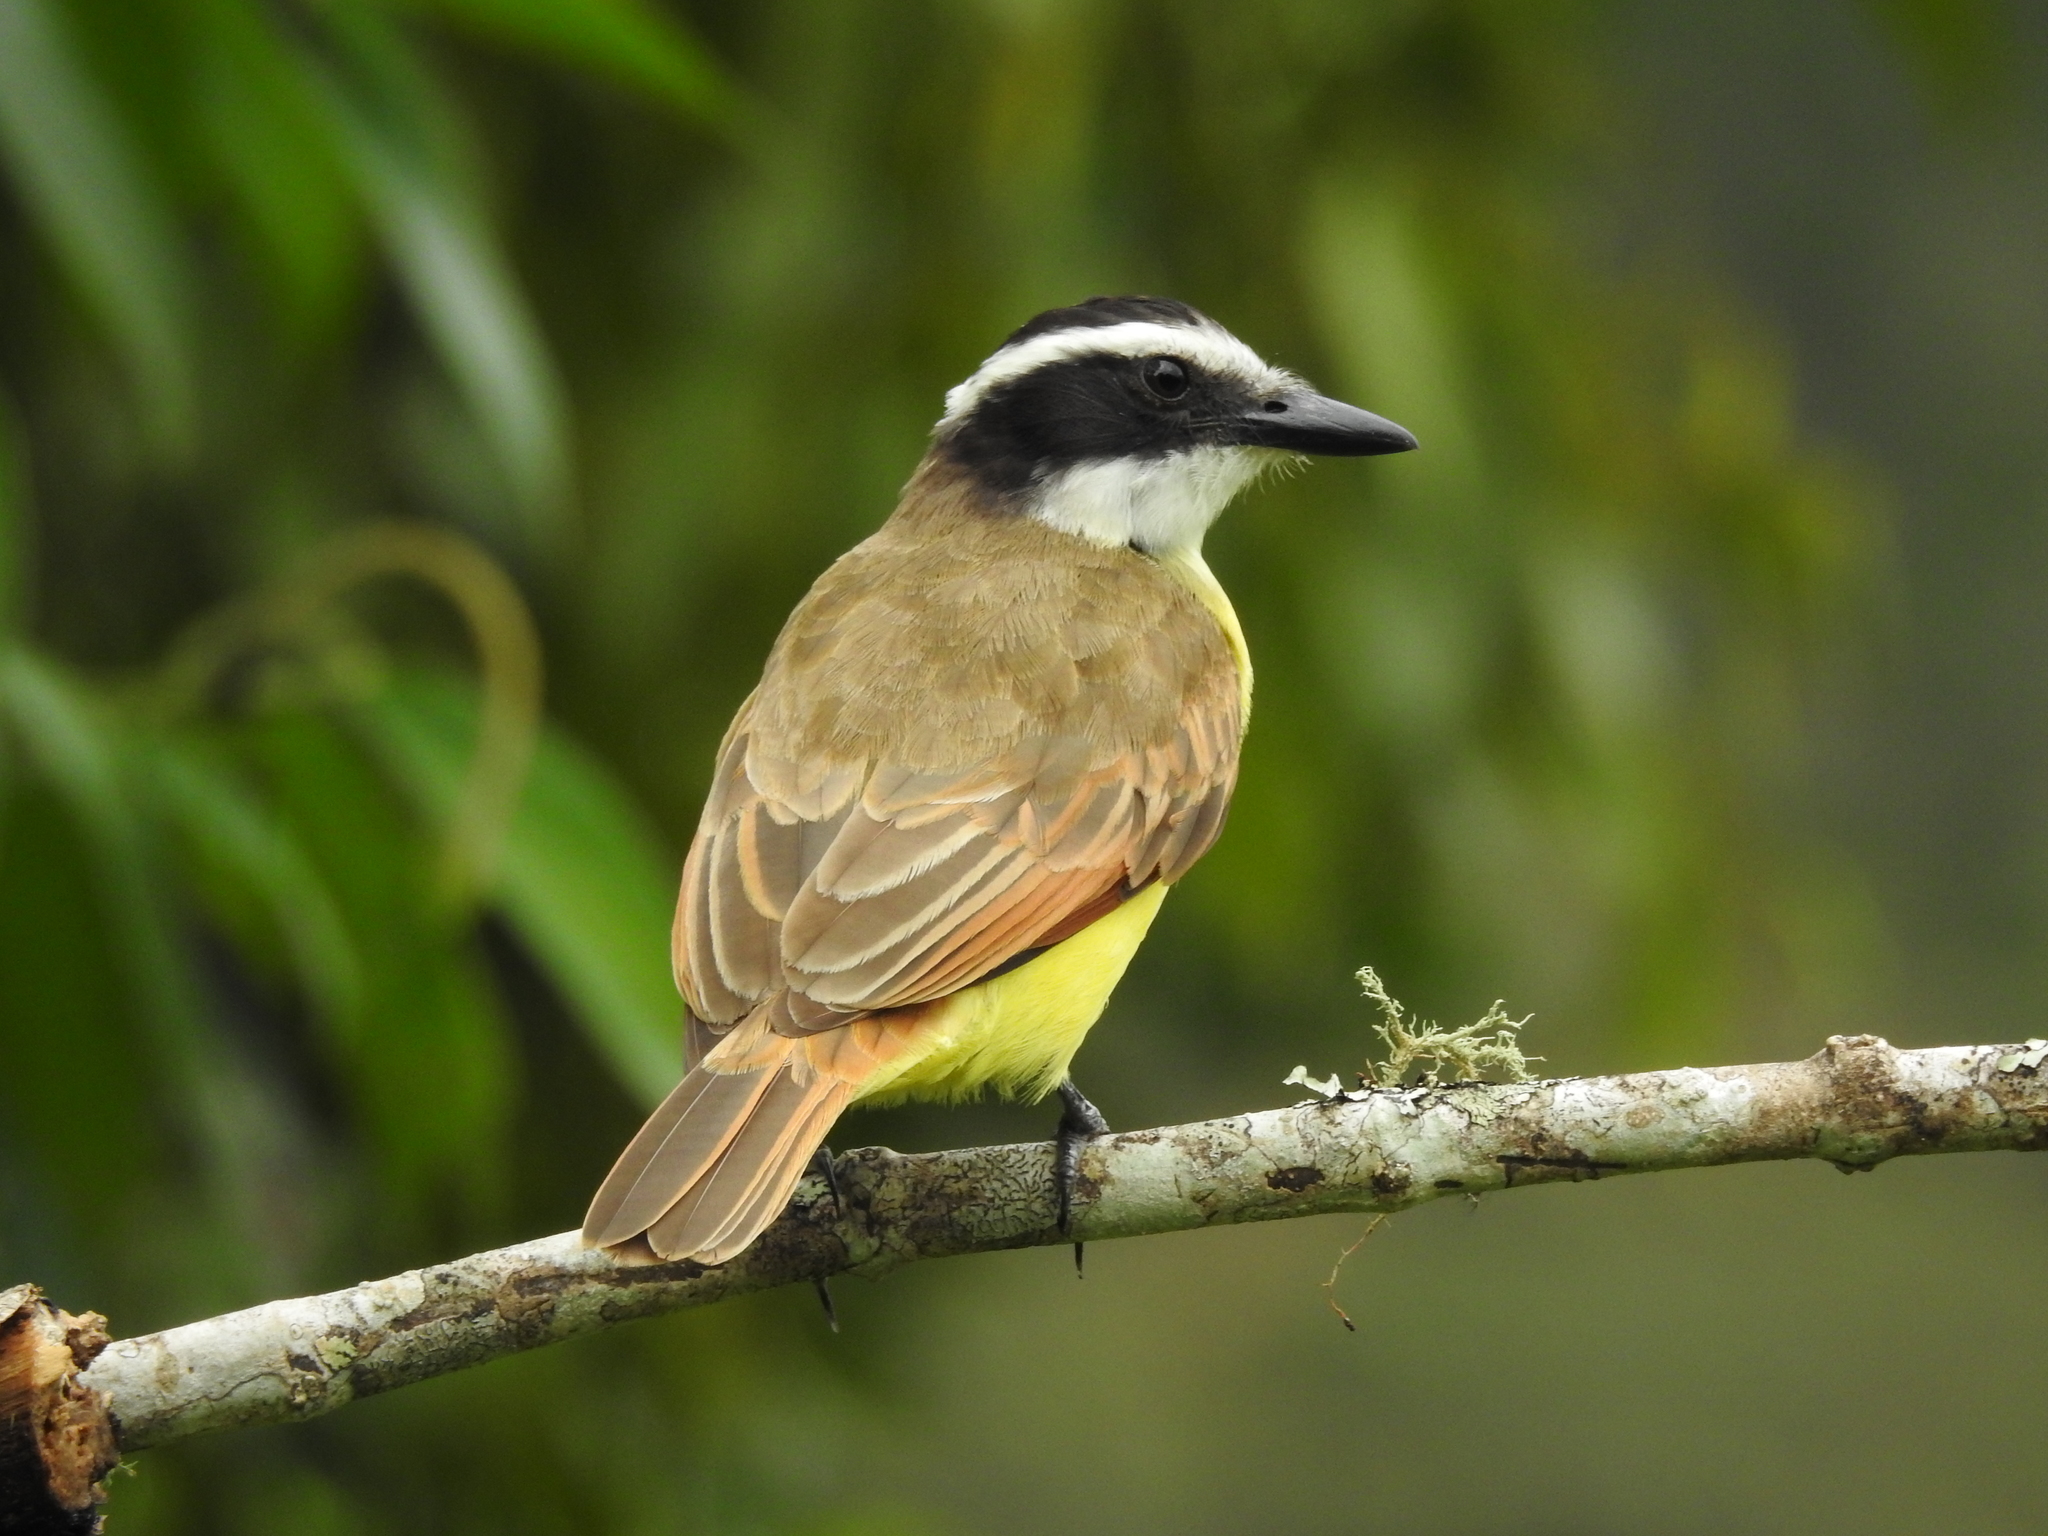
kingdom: Animalia
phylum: Chordata
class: Aves
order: Passeriformes
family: Tyrannidae
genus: Pitangus
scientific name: Pitangus sulphuratus
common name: Great kiskadee
